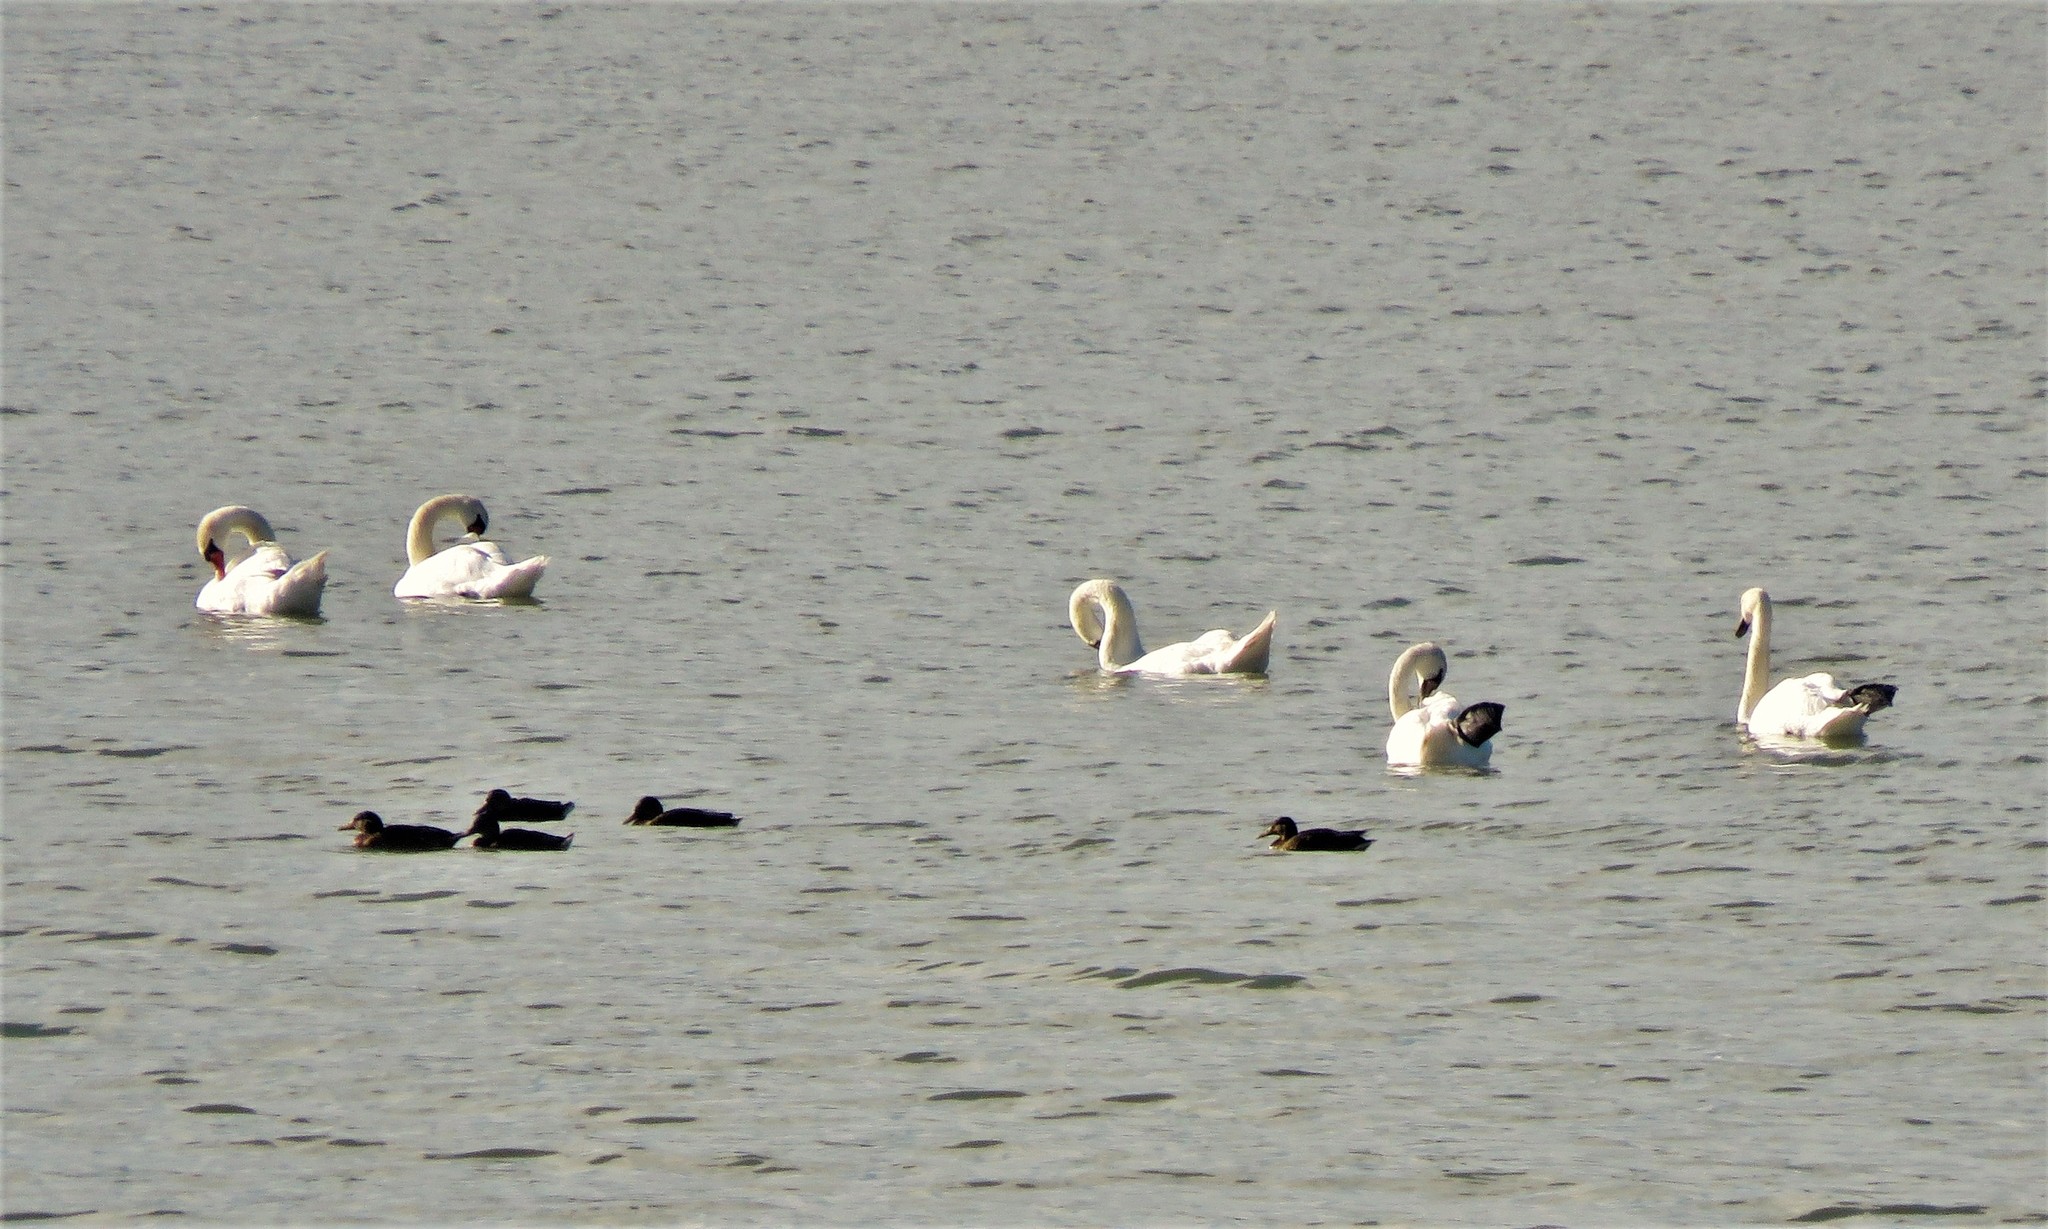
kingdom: Animalia
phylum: Chordata
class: Aves
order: Anseriformes
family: Anatidae
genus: Cygnus
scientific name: Cygnus olor
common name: Mute swan
